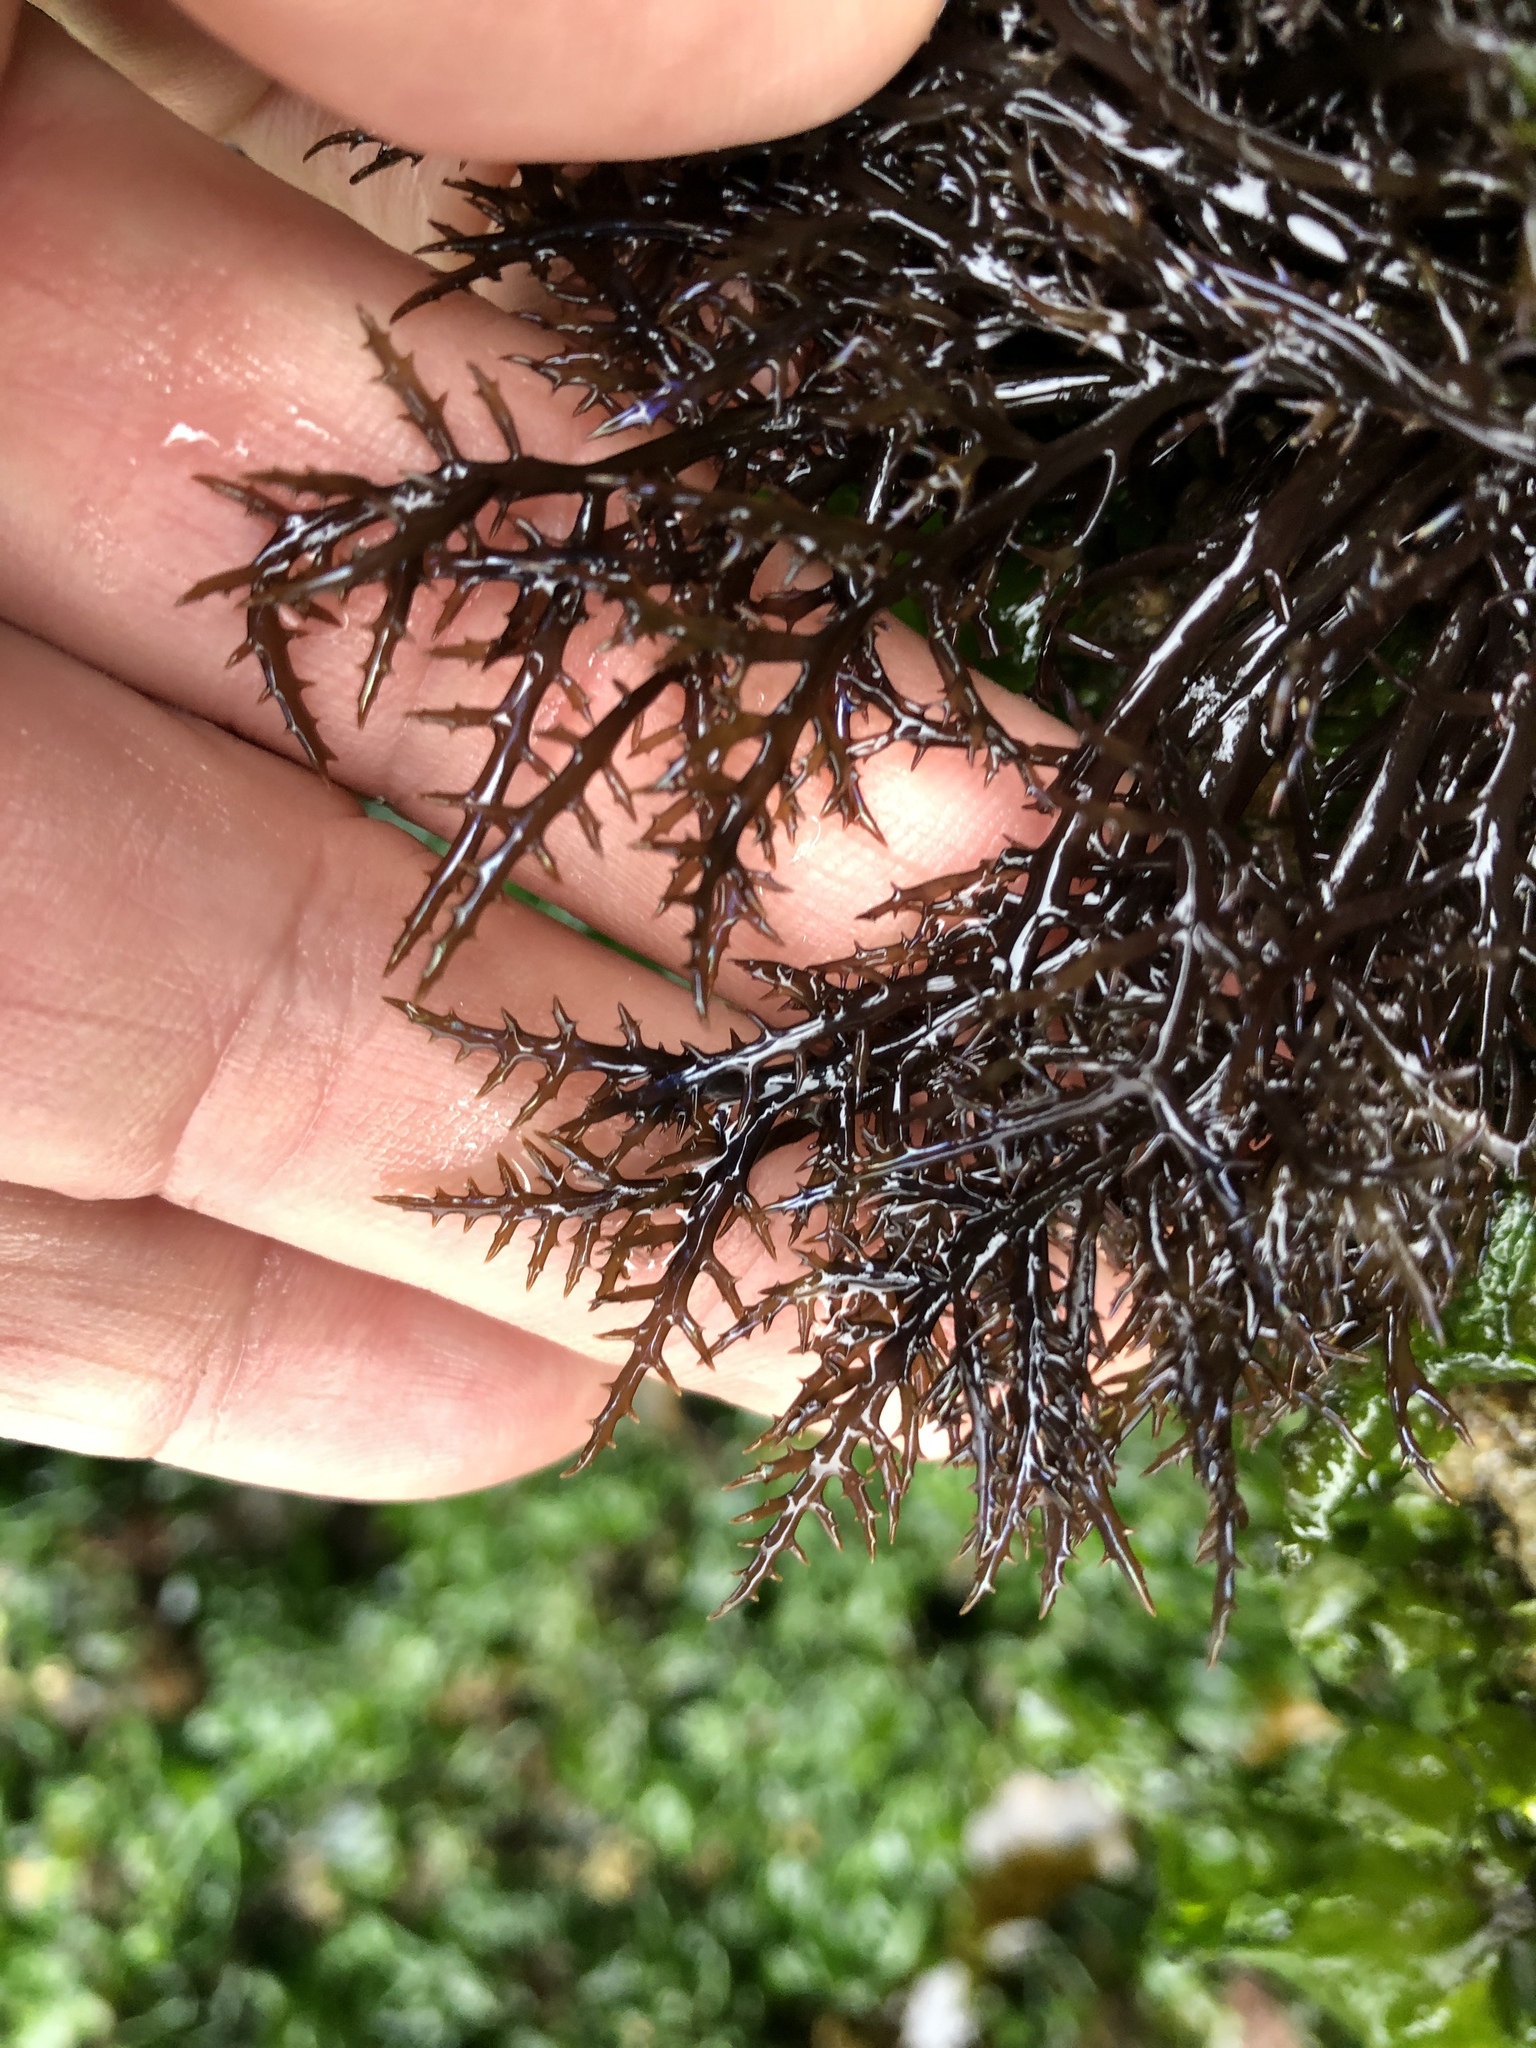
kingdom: Plantae
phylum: Rhodophyta
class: Florideophyceae
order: Gigartinales
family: Gigartinaceae
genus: Chondracanthus
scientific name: Chondracanthus canaliculatus
